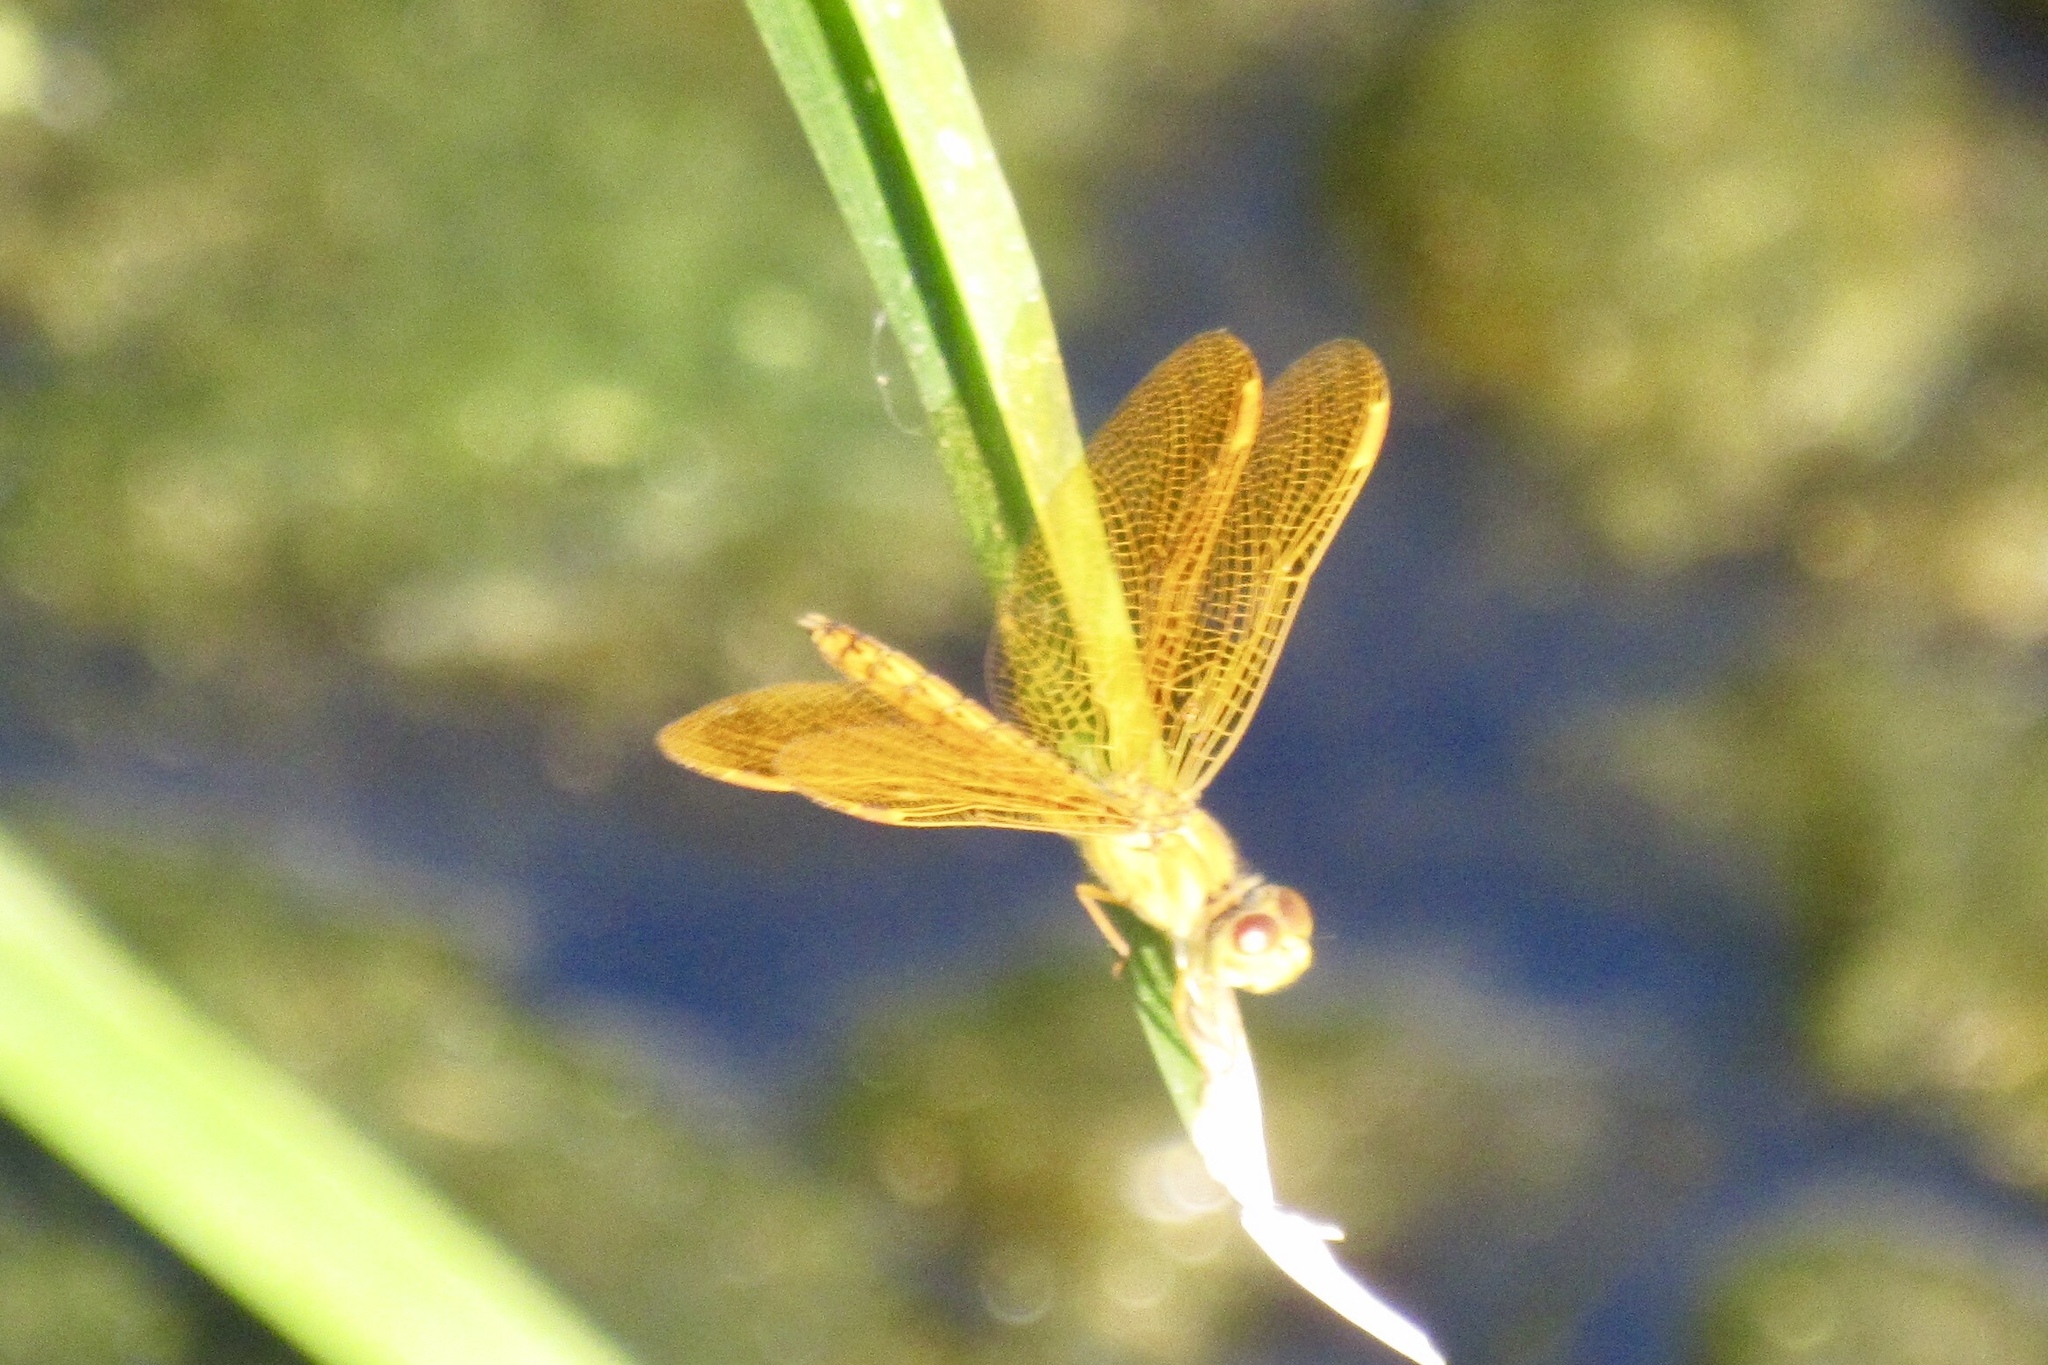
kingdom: Animalia
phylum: Arthropoda
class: Insecta
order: Odonata
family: Libellulidae
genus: Perithemis
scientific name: Perithemis intensa
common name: Mexican amberwing
